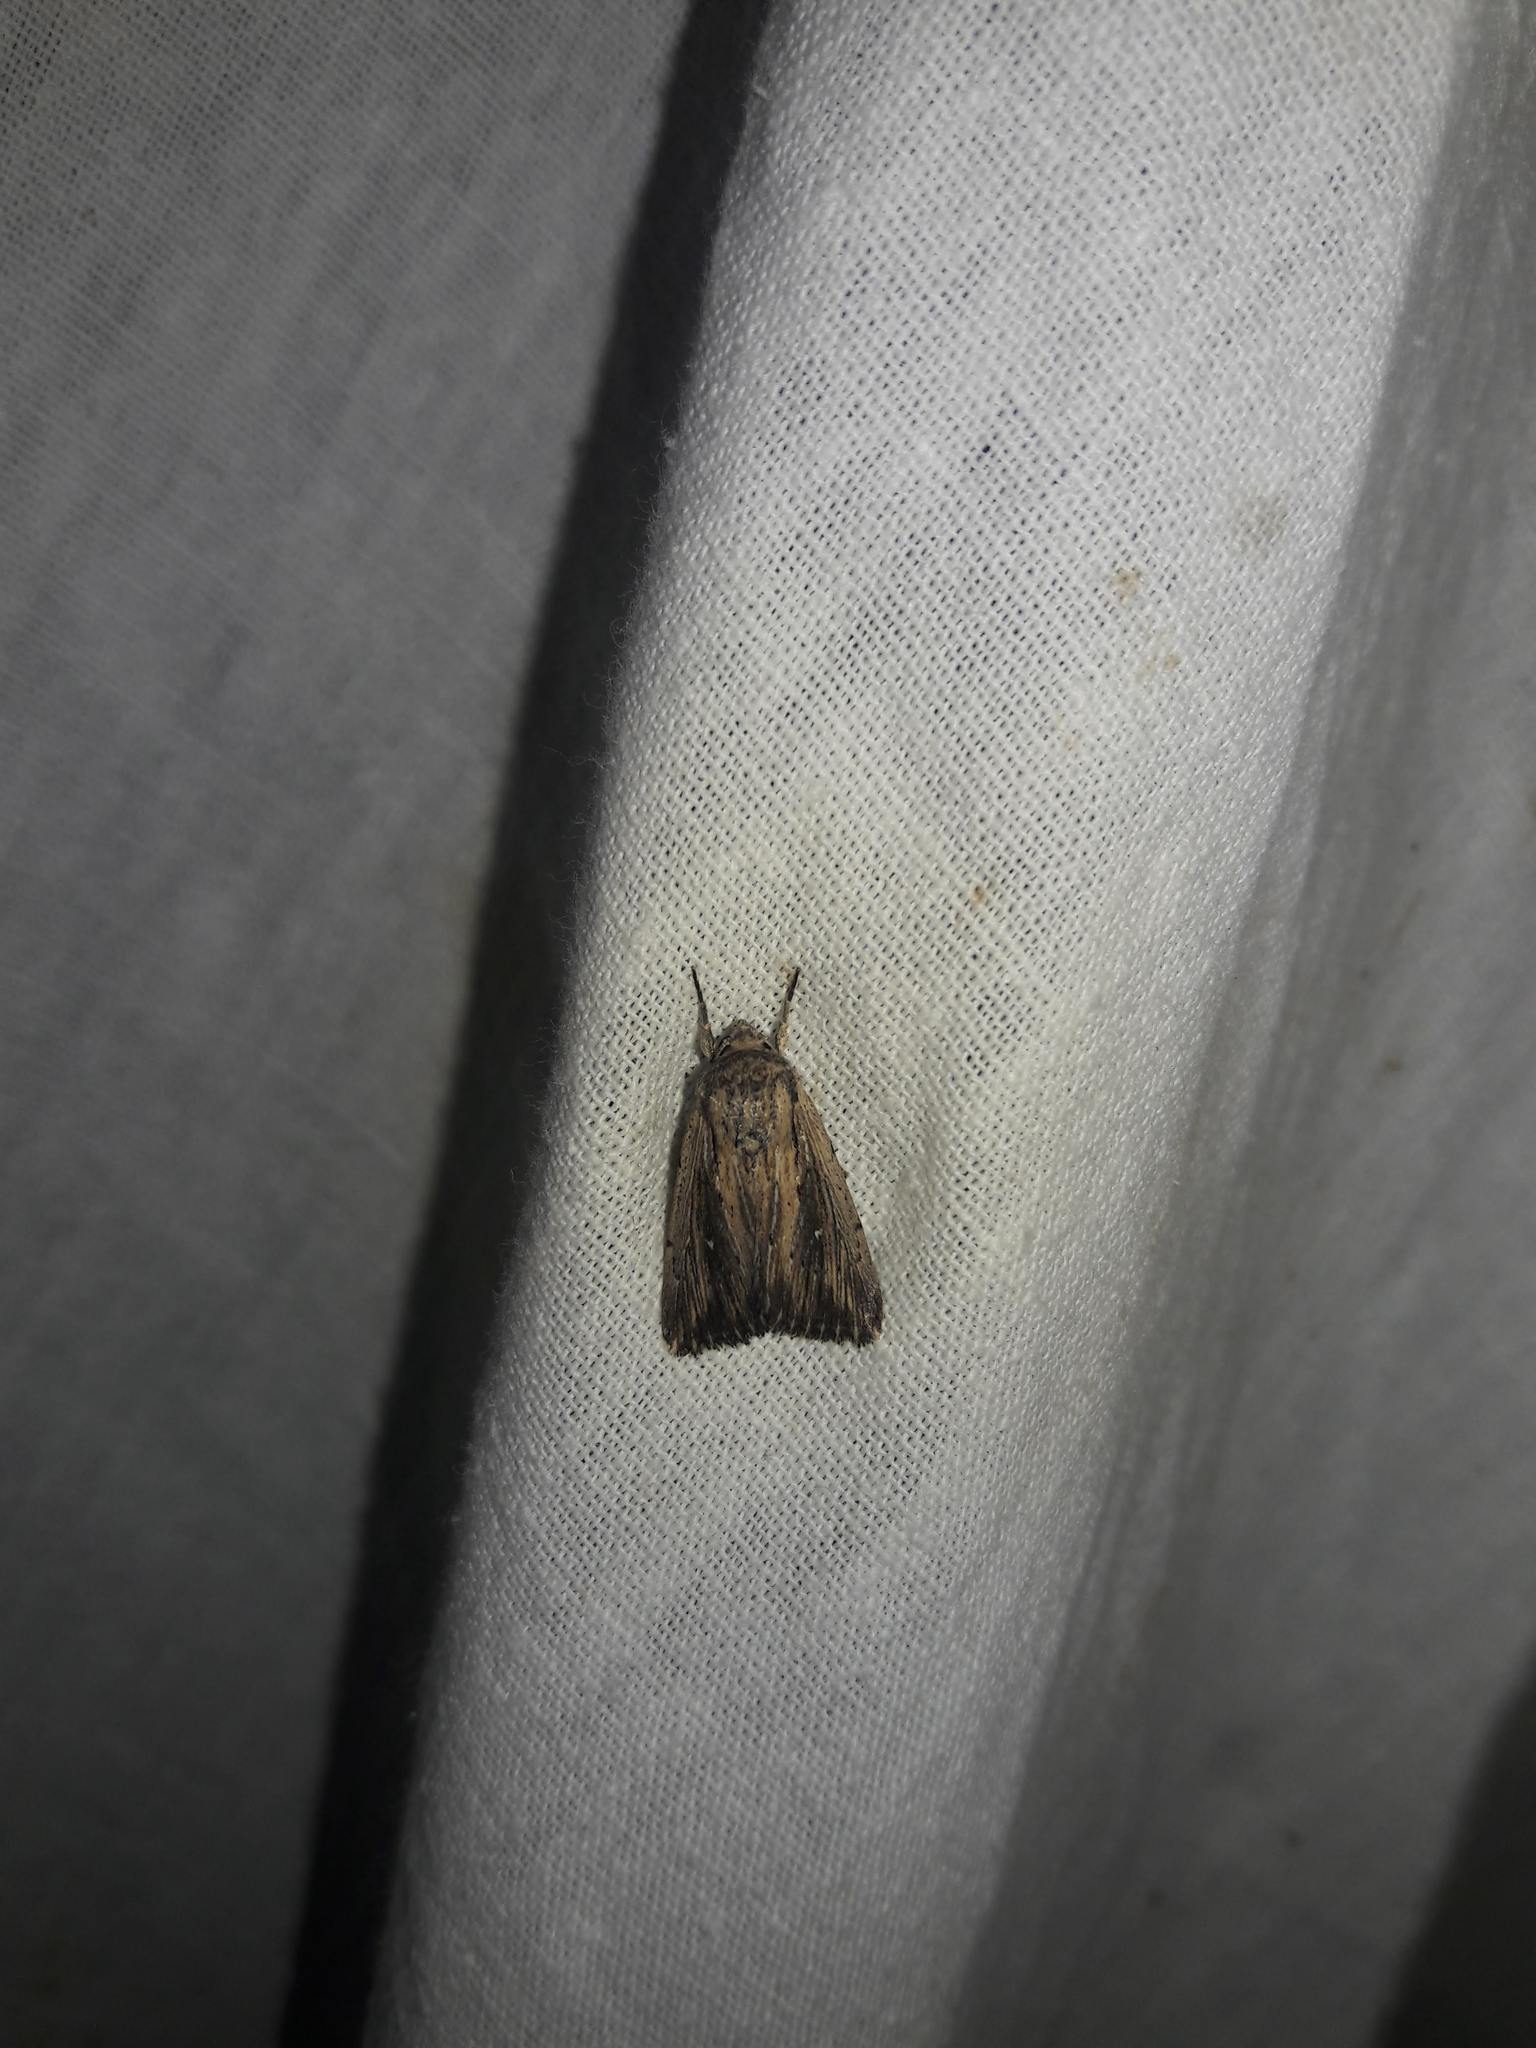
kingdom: Animalia
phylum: Arthropoda
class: Insecta
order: Lepidoptera
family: Noctuidae
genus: Leucania
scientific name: Leucania putrescens
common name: Devonshire wainscot
